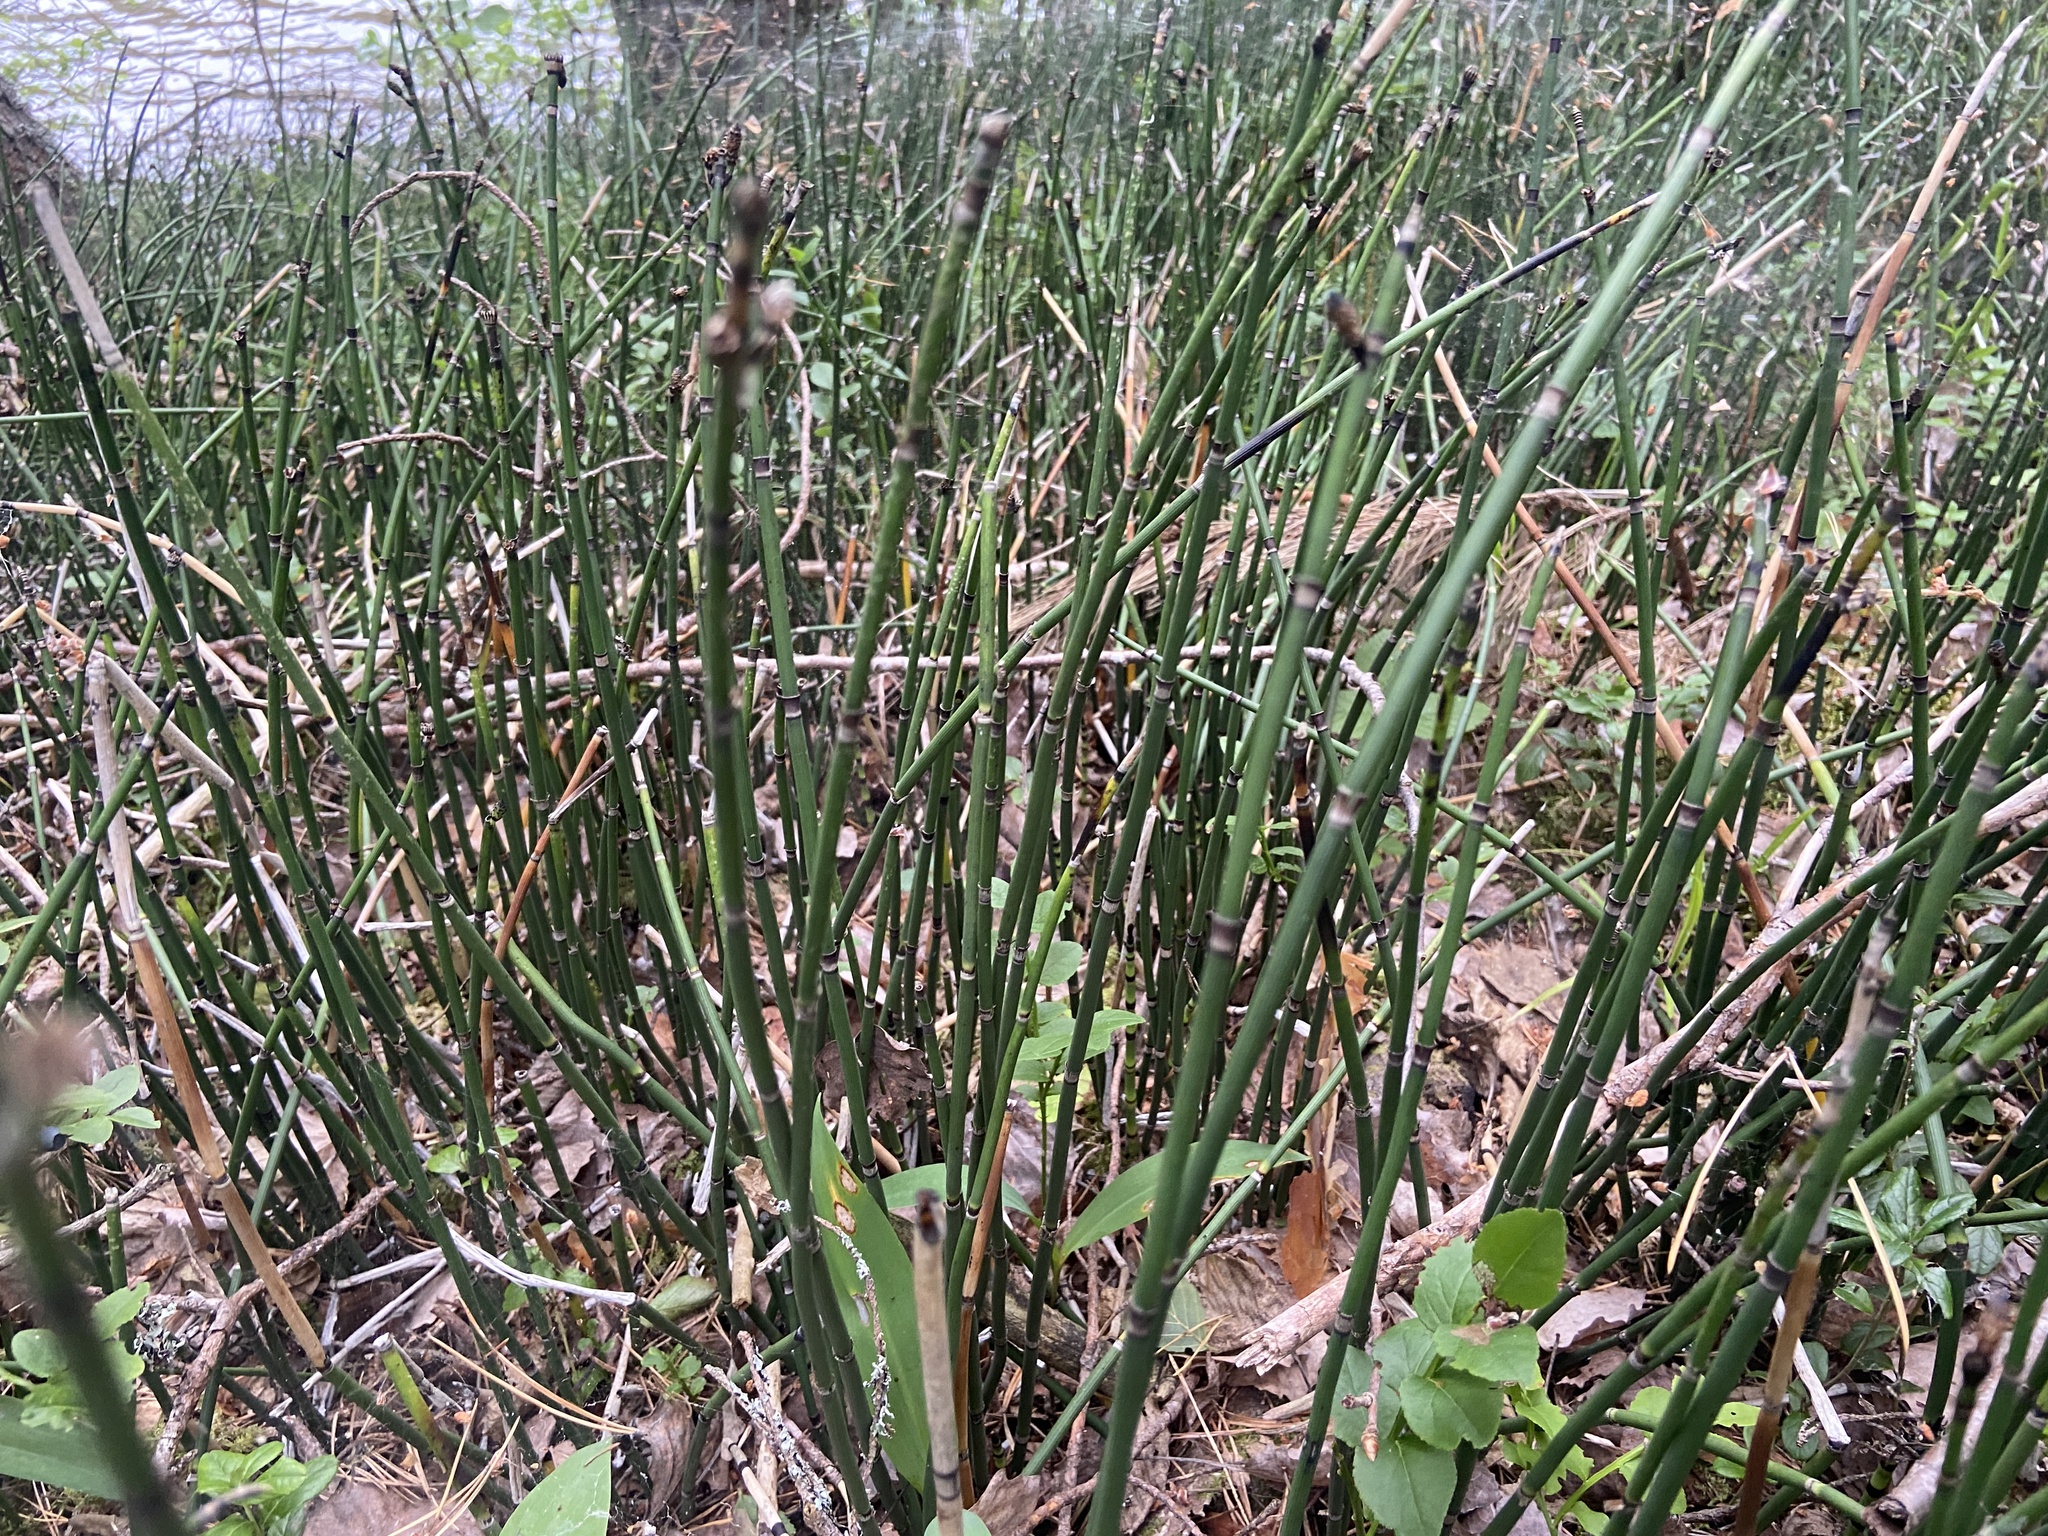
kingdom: Plantae
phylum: Tracheophyta
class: Polypodiopsida
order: Equisetales
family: Equisetaceae
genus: Equisetum
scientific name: Equisetum hyemale
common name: Rough horsetail
